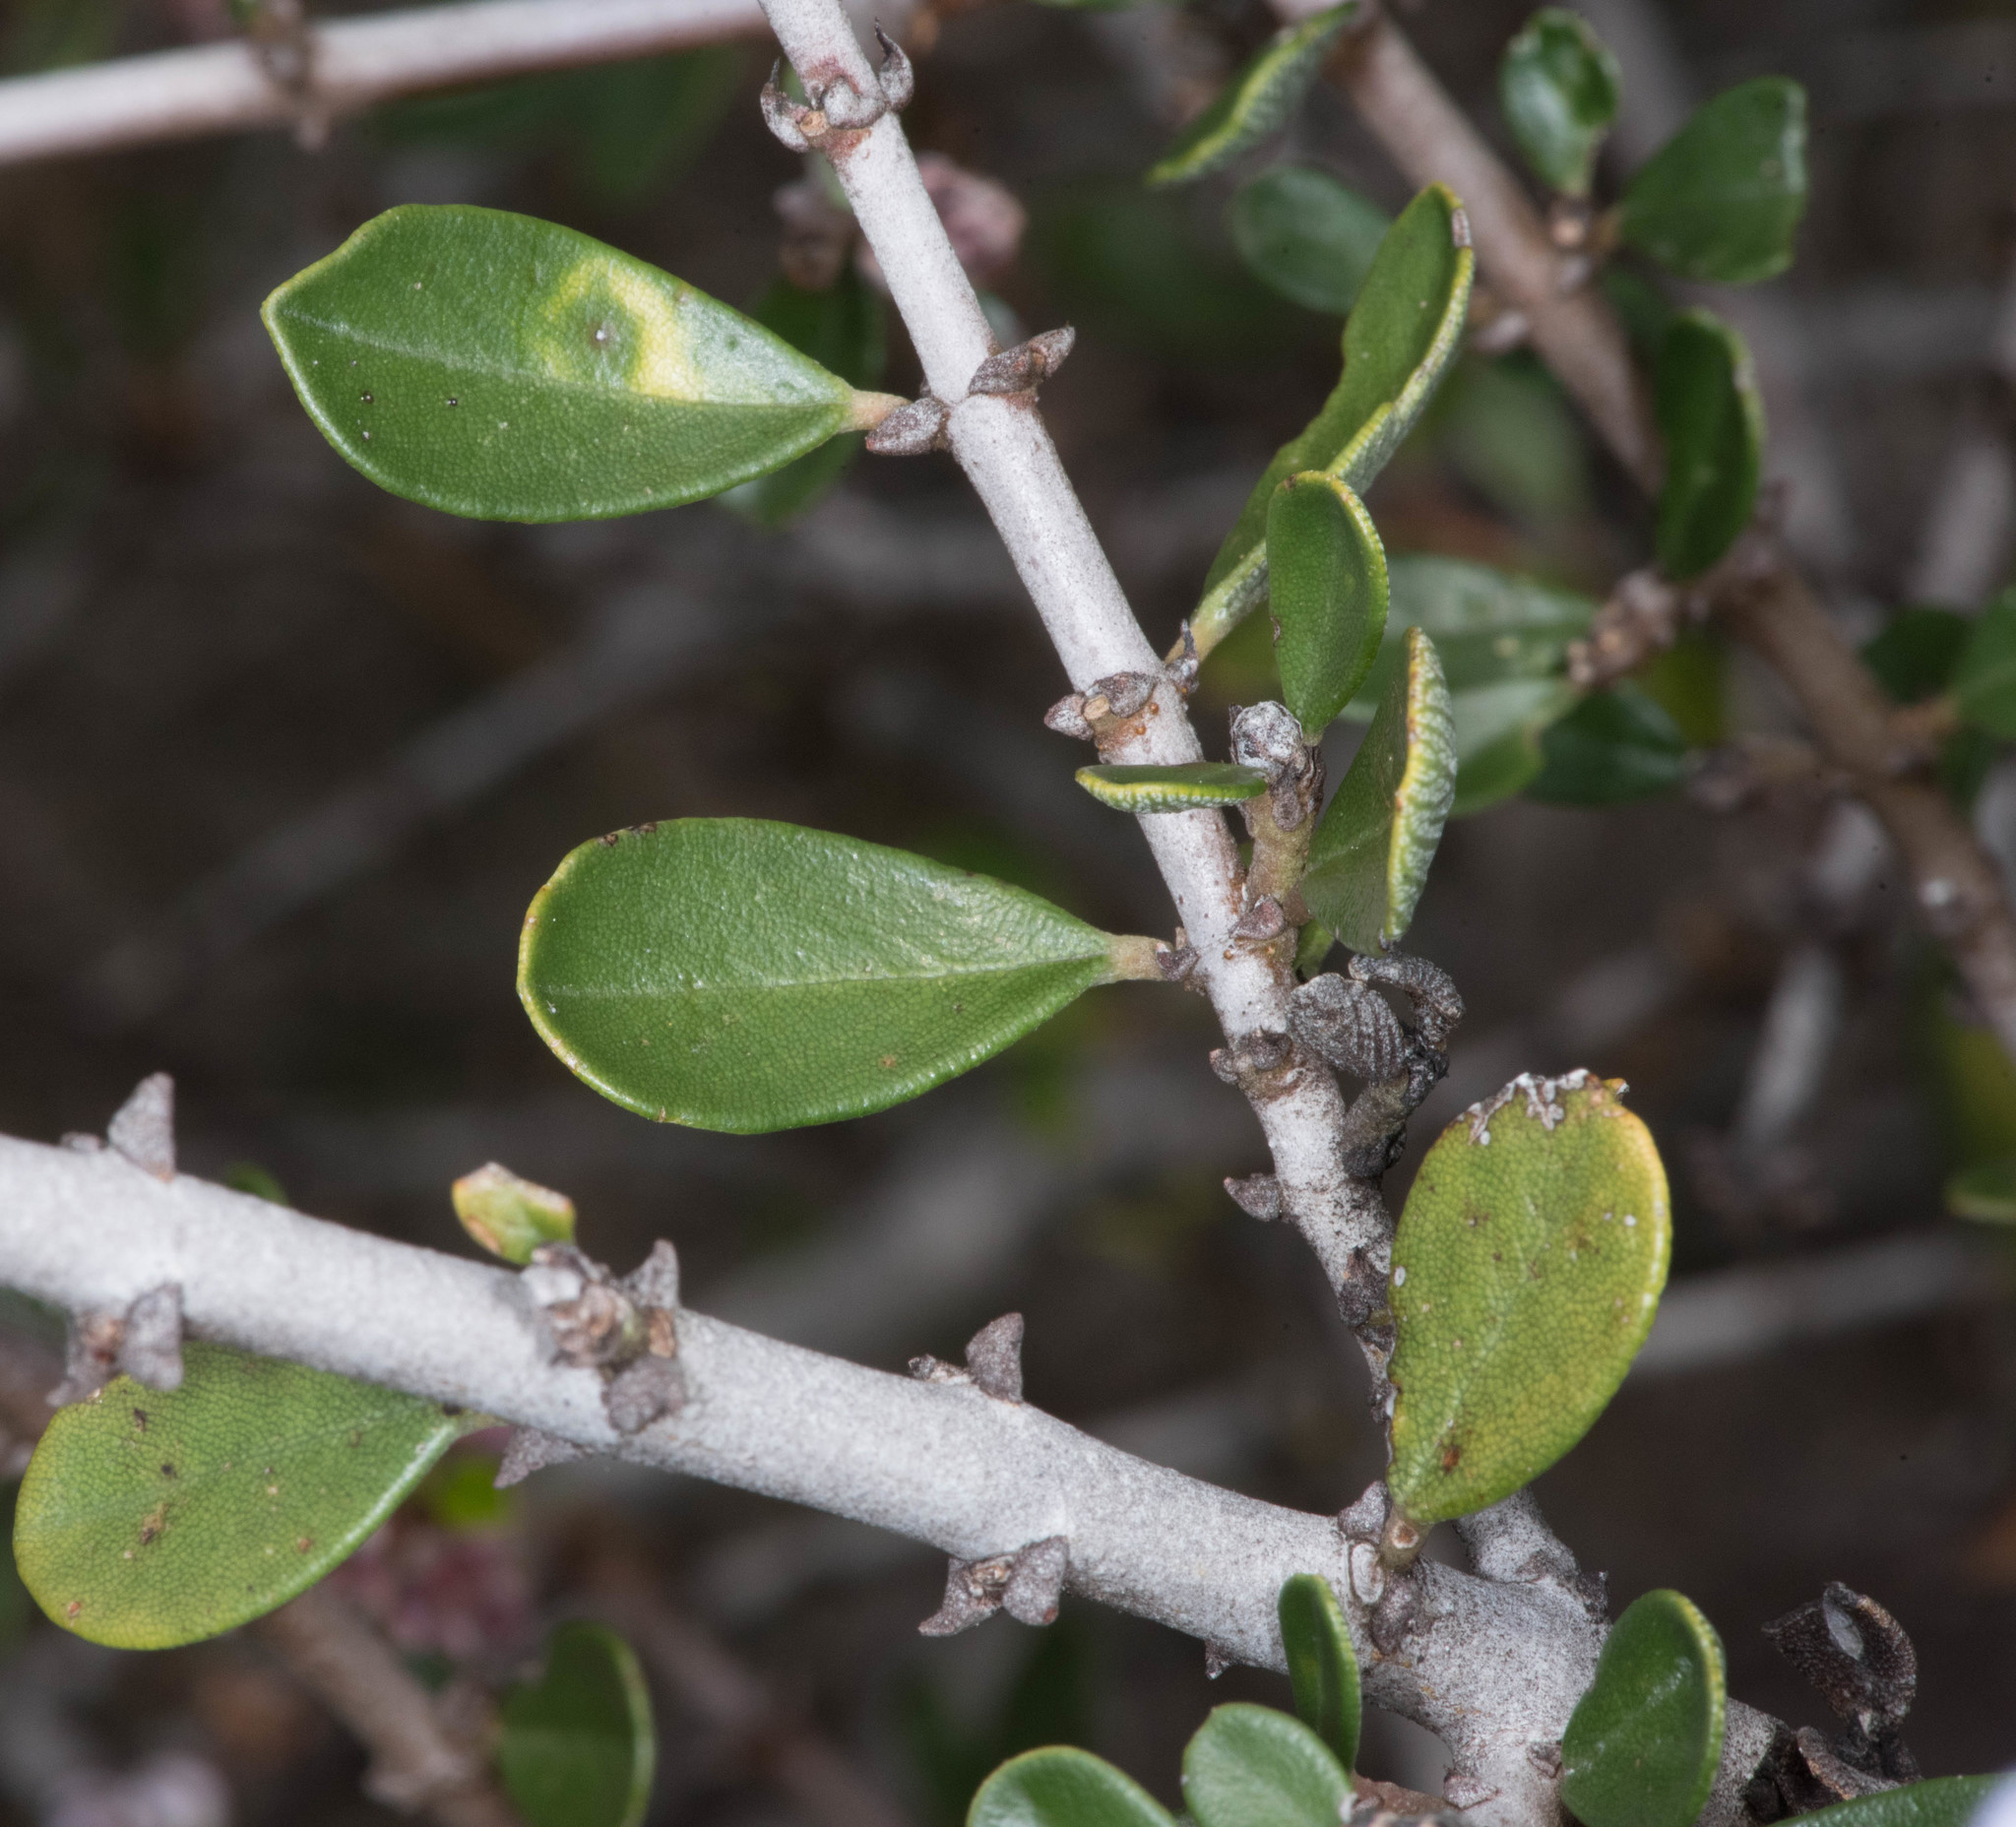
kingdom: Plantae
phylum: Tracheophyta
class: Magnoliopsida
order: Rosales
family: Rhamnaceae
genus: Ceanothus
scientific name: Ceanothus cuneatus
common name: Cuneate ceanothus
